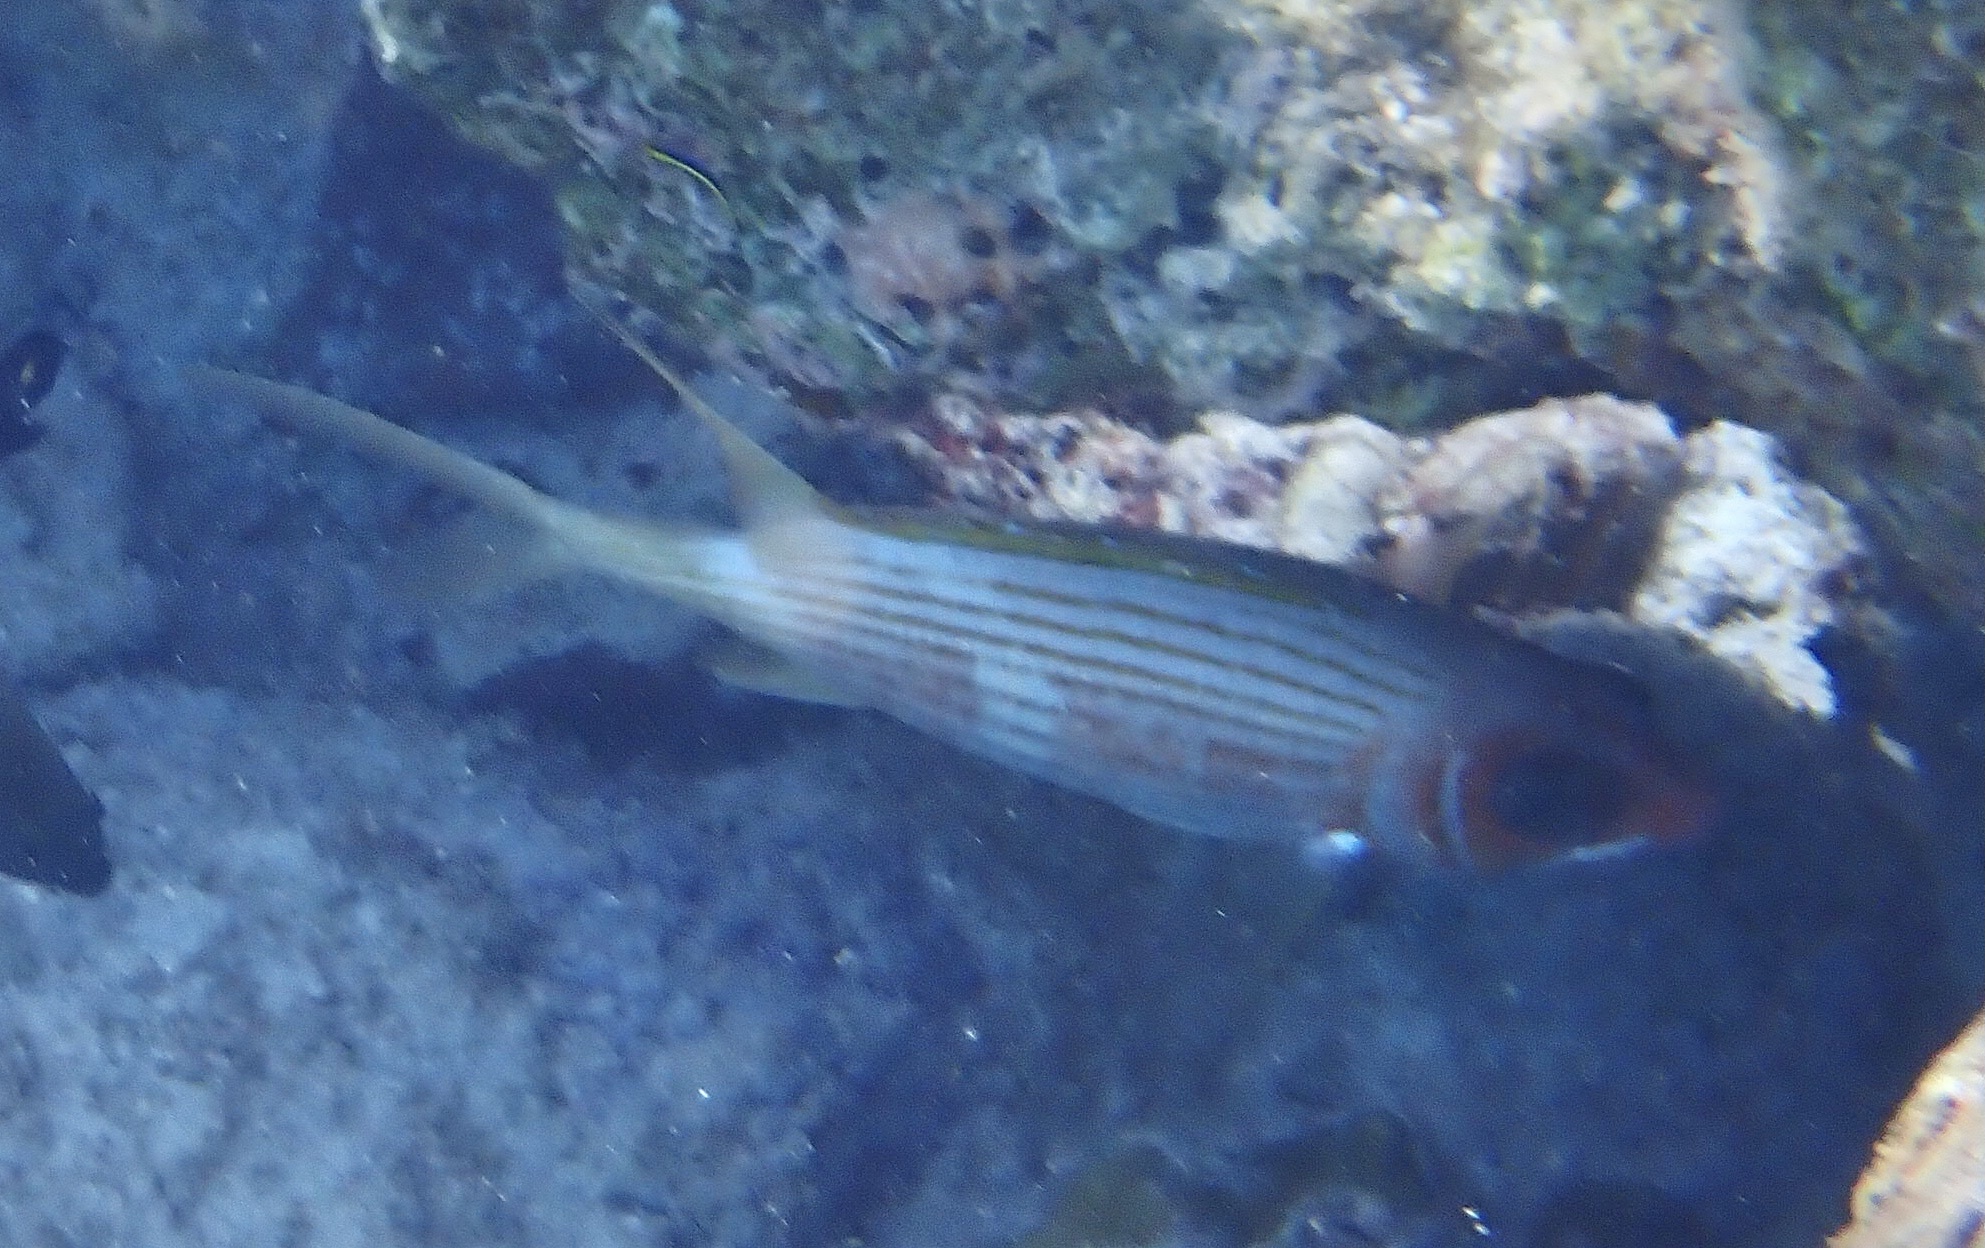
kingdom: Animalia
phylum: Chordata
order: Beryciformes
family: Holocentridae
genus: Holocentrus
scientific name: Holocentrus rufus
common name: Longspine squirrelfish
